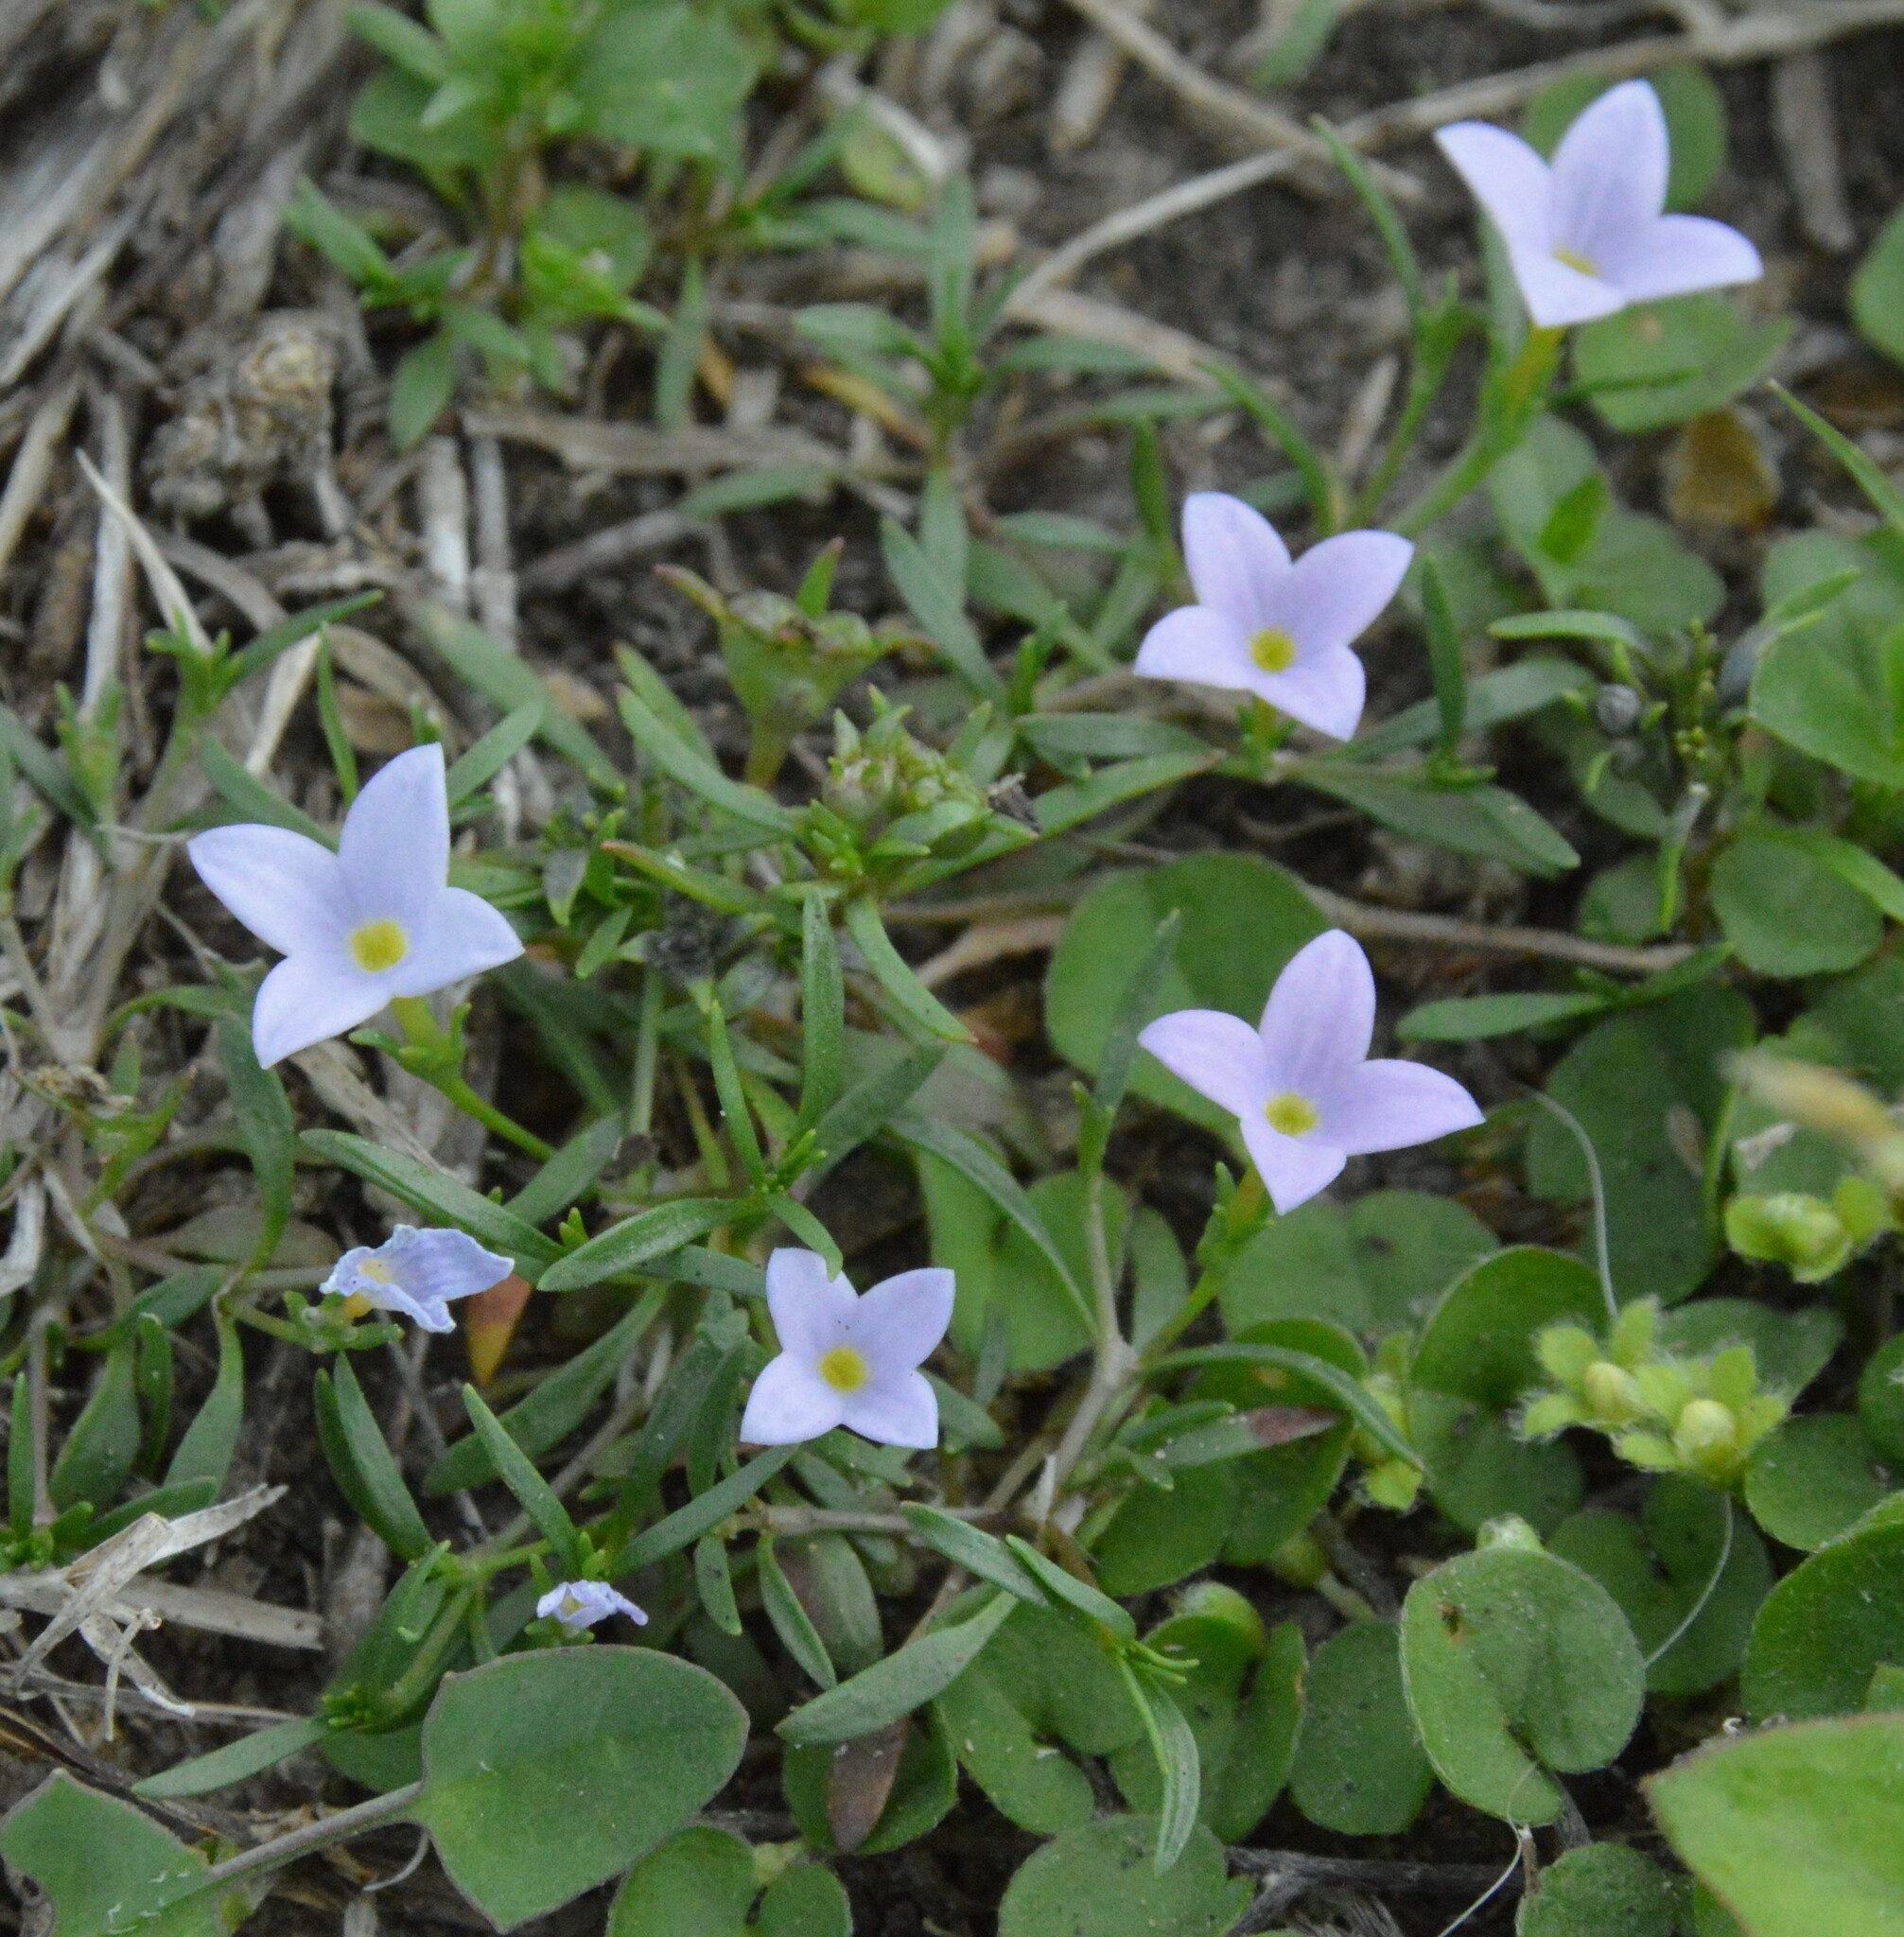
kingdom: Plantae
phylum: Tracheophyta
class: Magnoliopsida
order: Gentianales
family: Rubiaceae
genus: Houstonia
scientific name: Houstonia rosea
